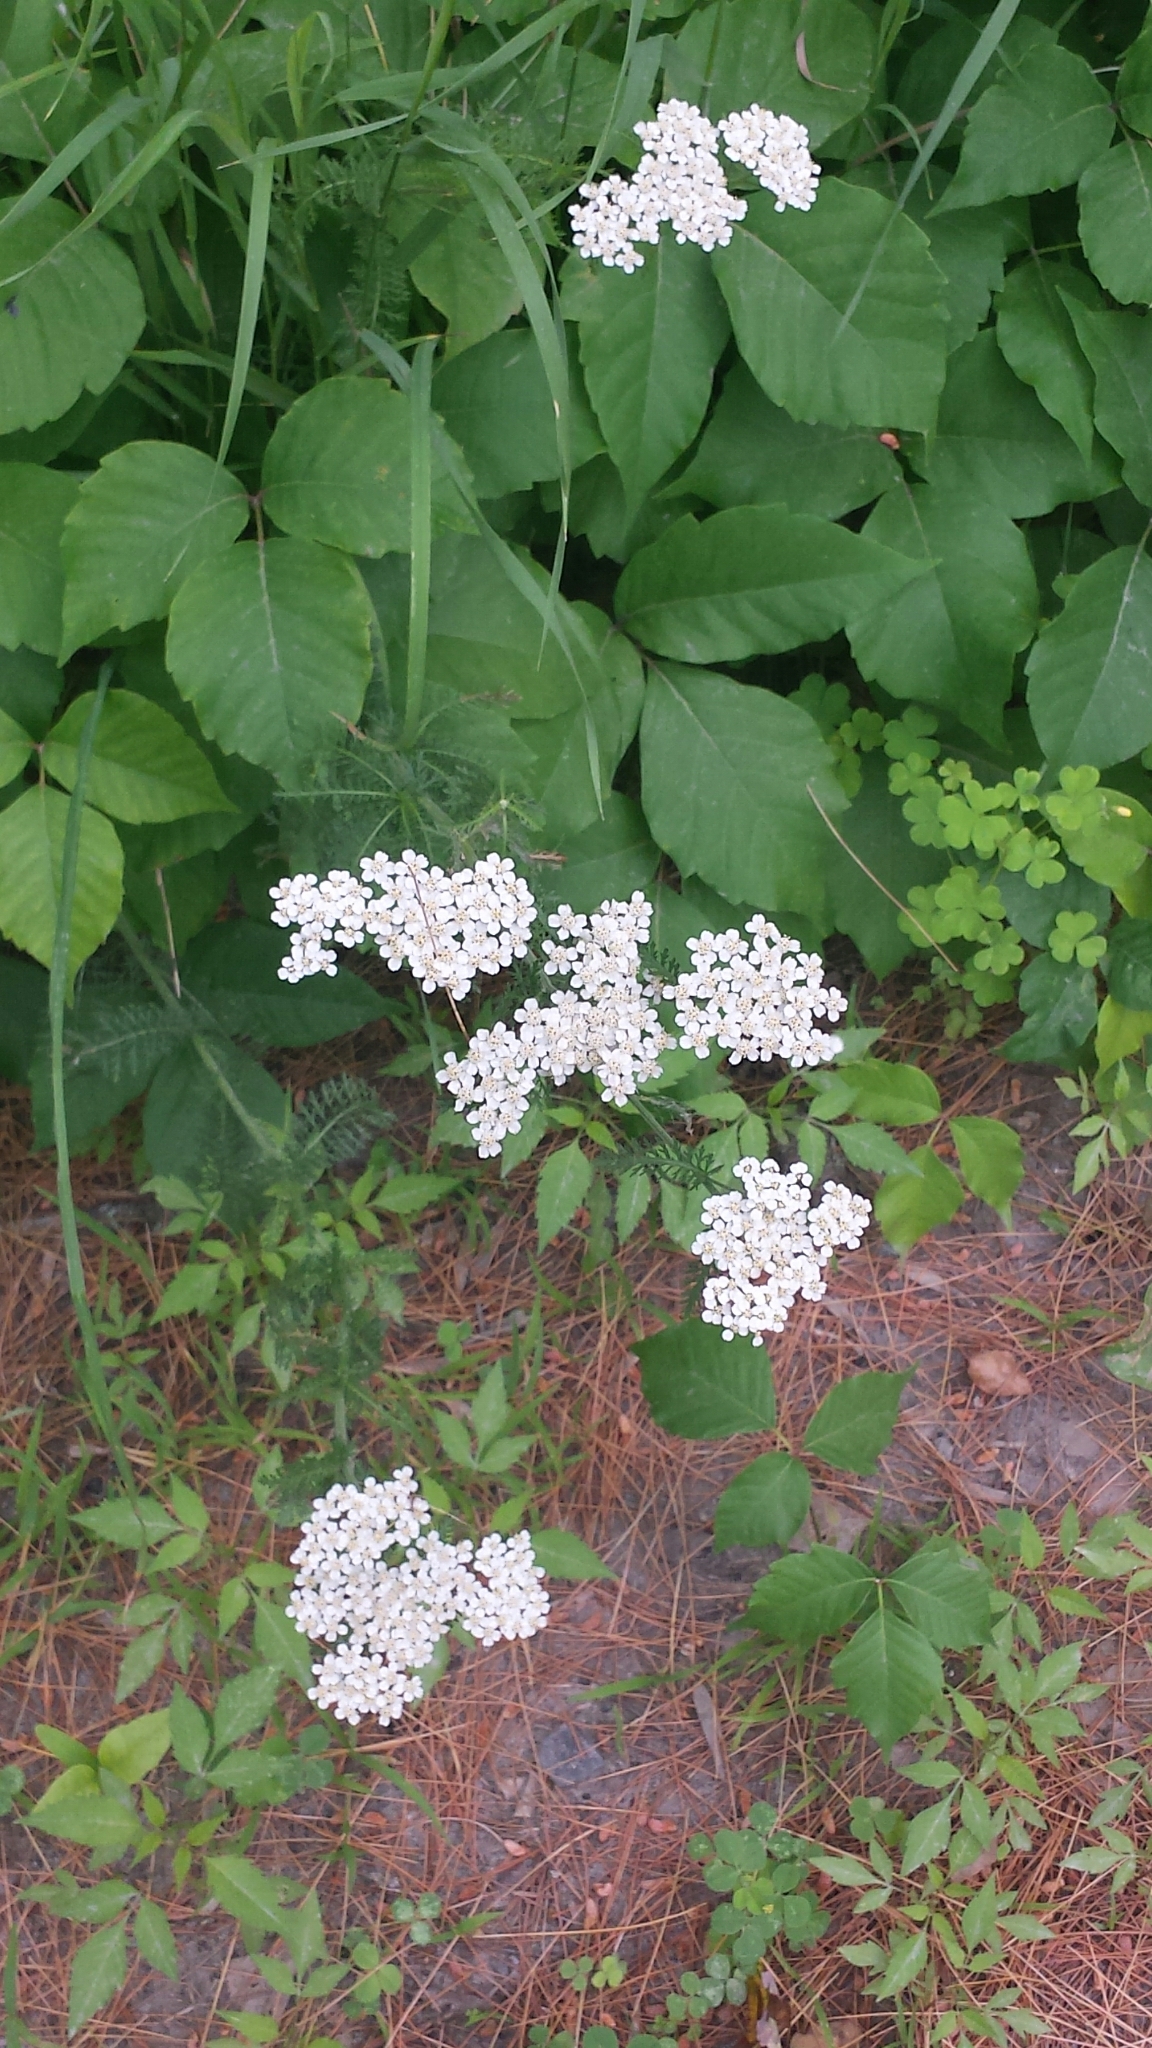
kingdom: Plantae
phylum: Tracheophyta
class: Magnoliopsida
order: Asterales
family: Asteraceae
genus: Achillea
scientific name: Achillea millefolium
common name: Yarrow
